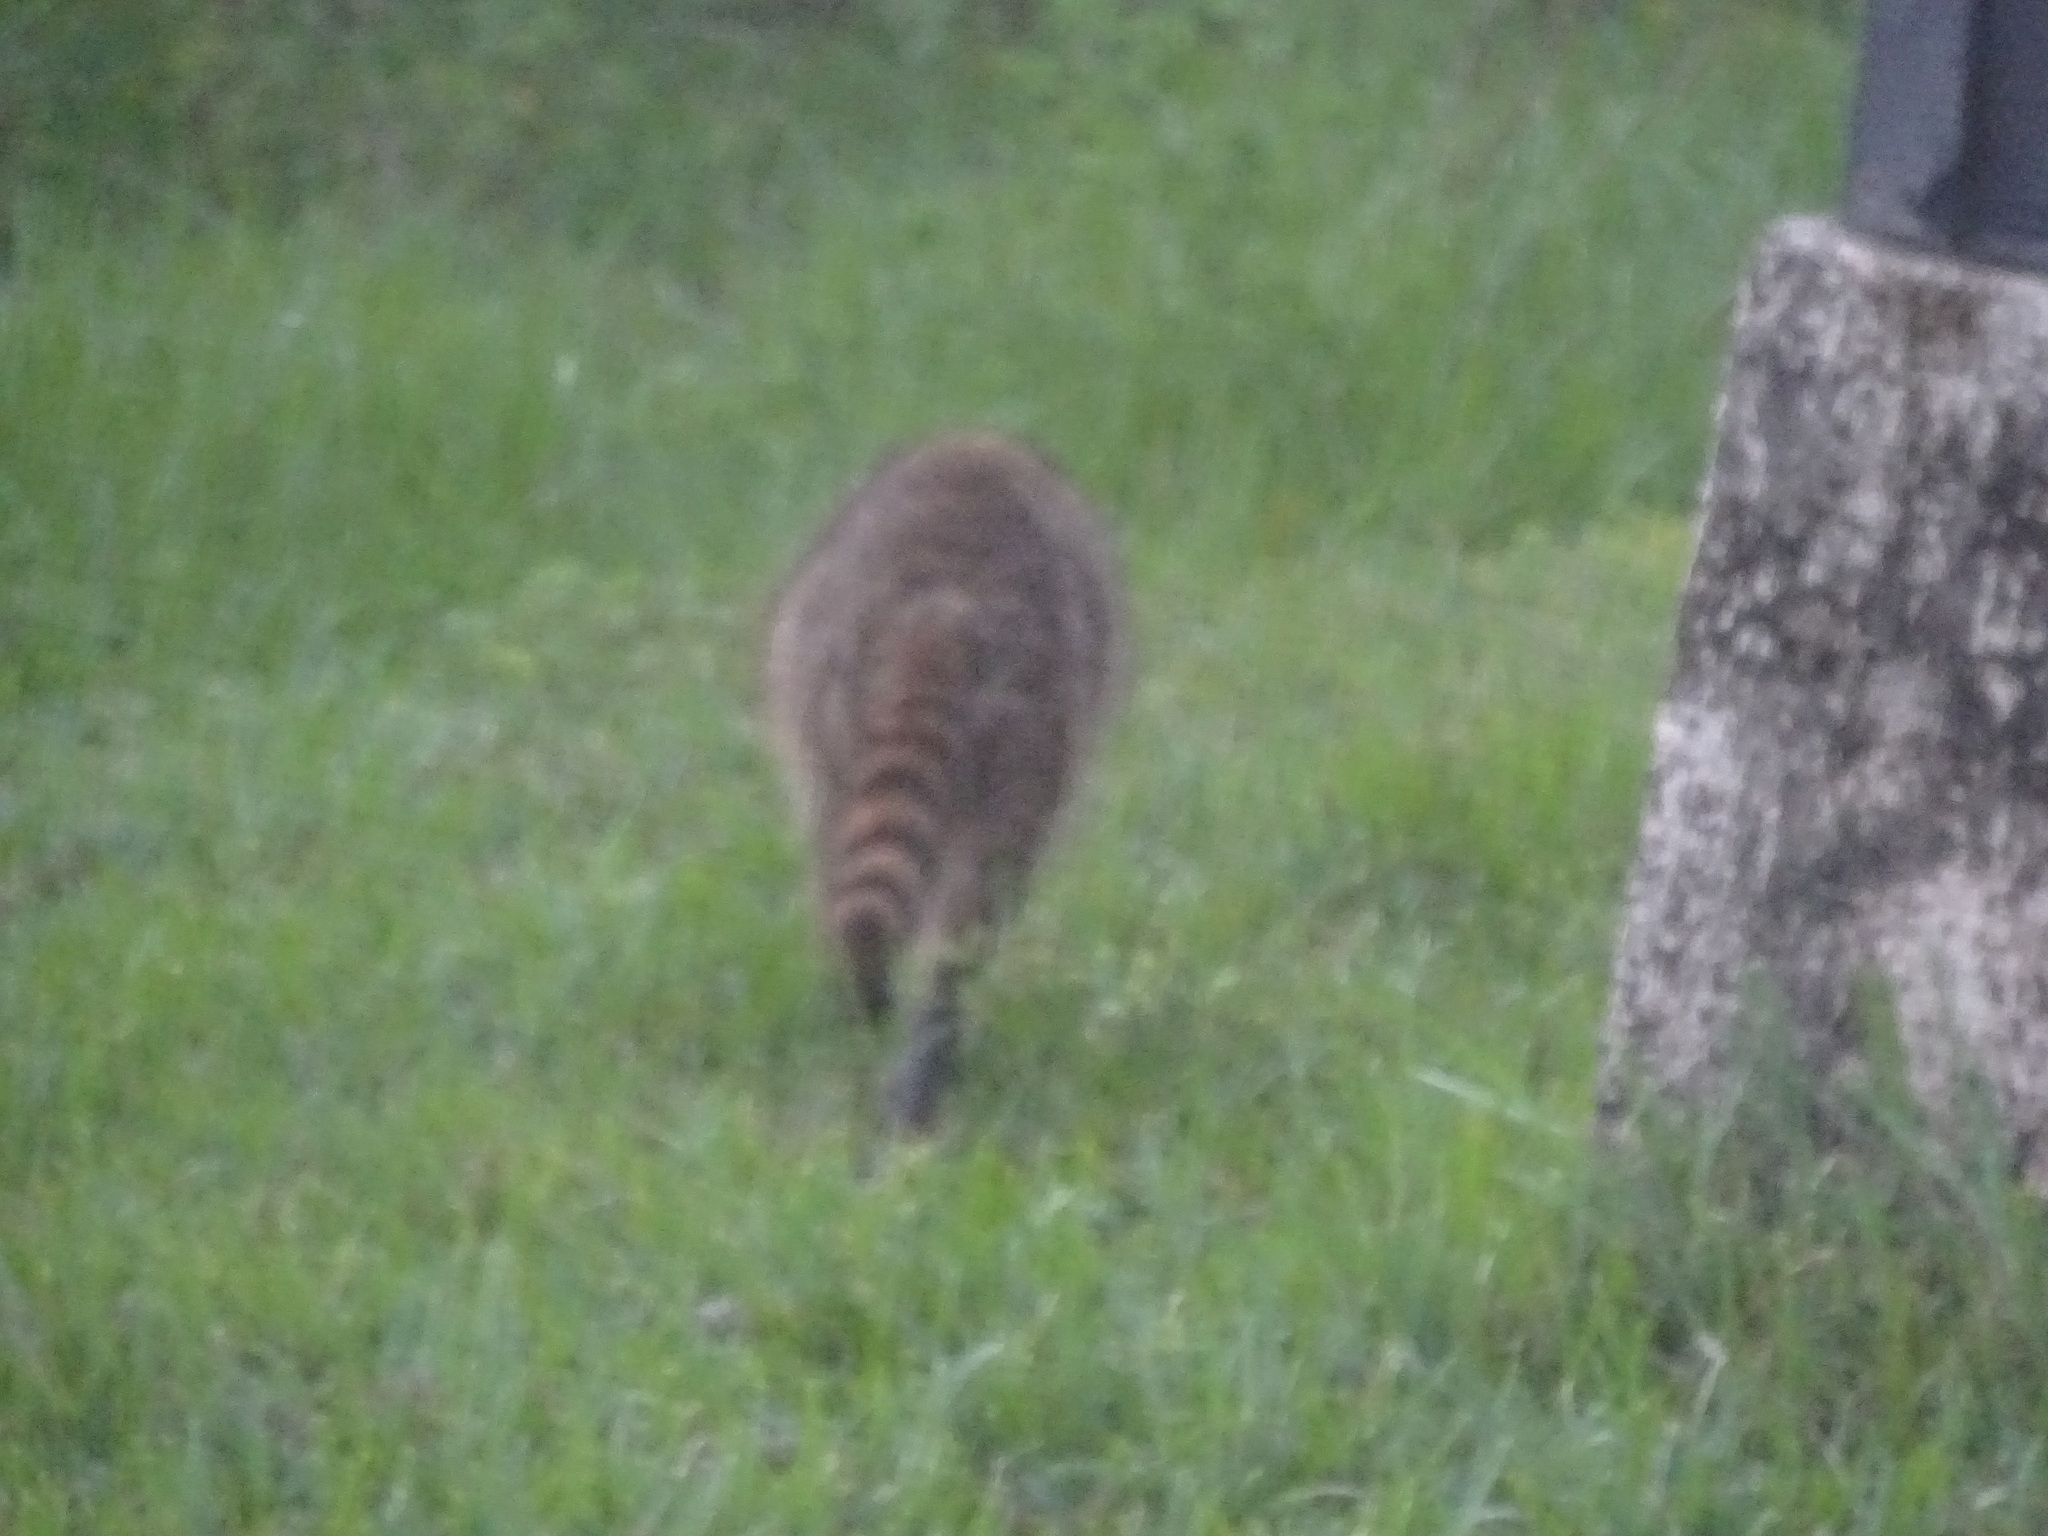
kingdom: Animalia
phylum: Chordata
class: Mammalia
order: Carnivora
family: Procyonidae
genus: Procyon
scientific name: Procyon lotor
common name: Raccoon
